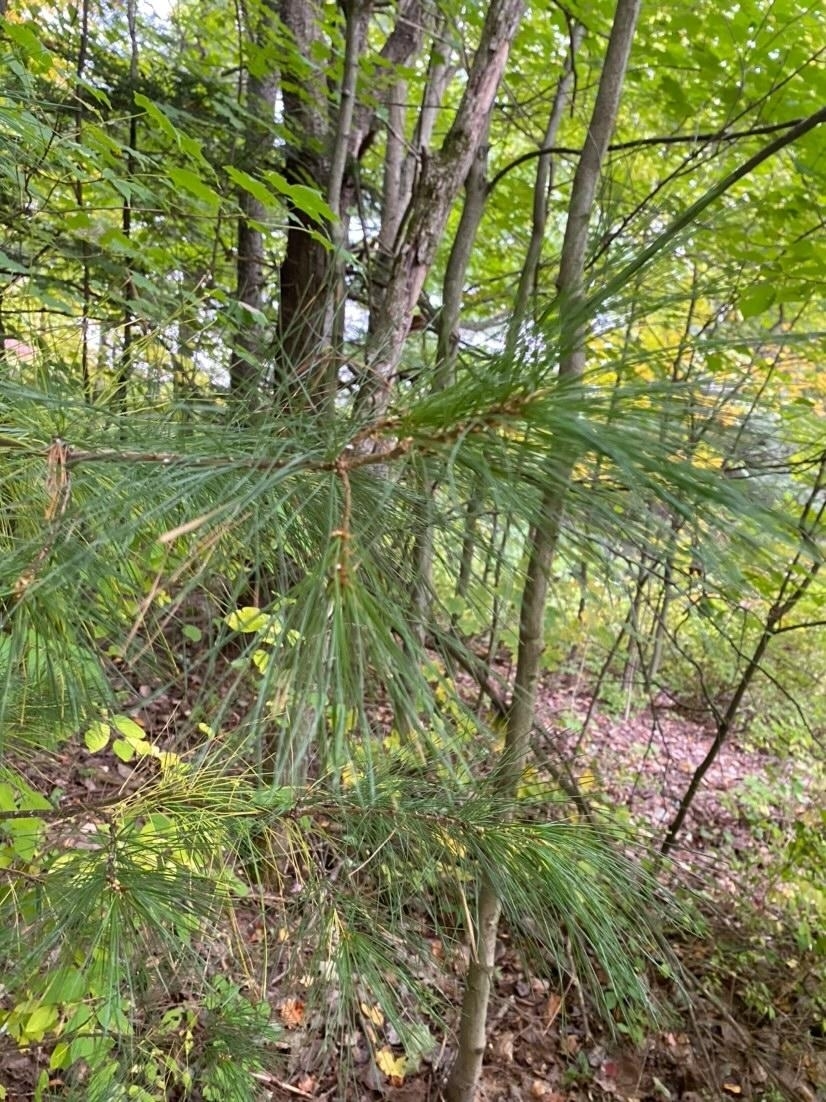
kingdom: Plantae
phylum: Tracheophyta
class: Pinopsida
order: Pinales
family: Pinaceae
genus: Pinus
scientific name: Pinus strobus
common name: Weymouth pine
